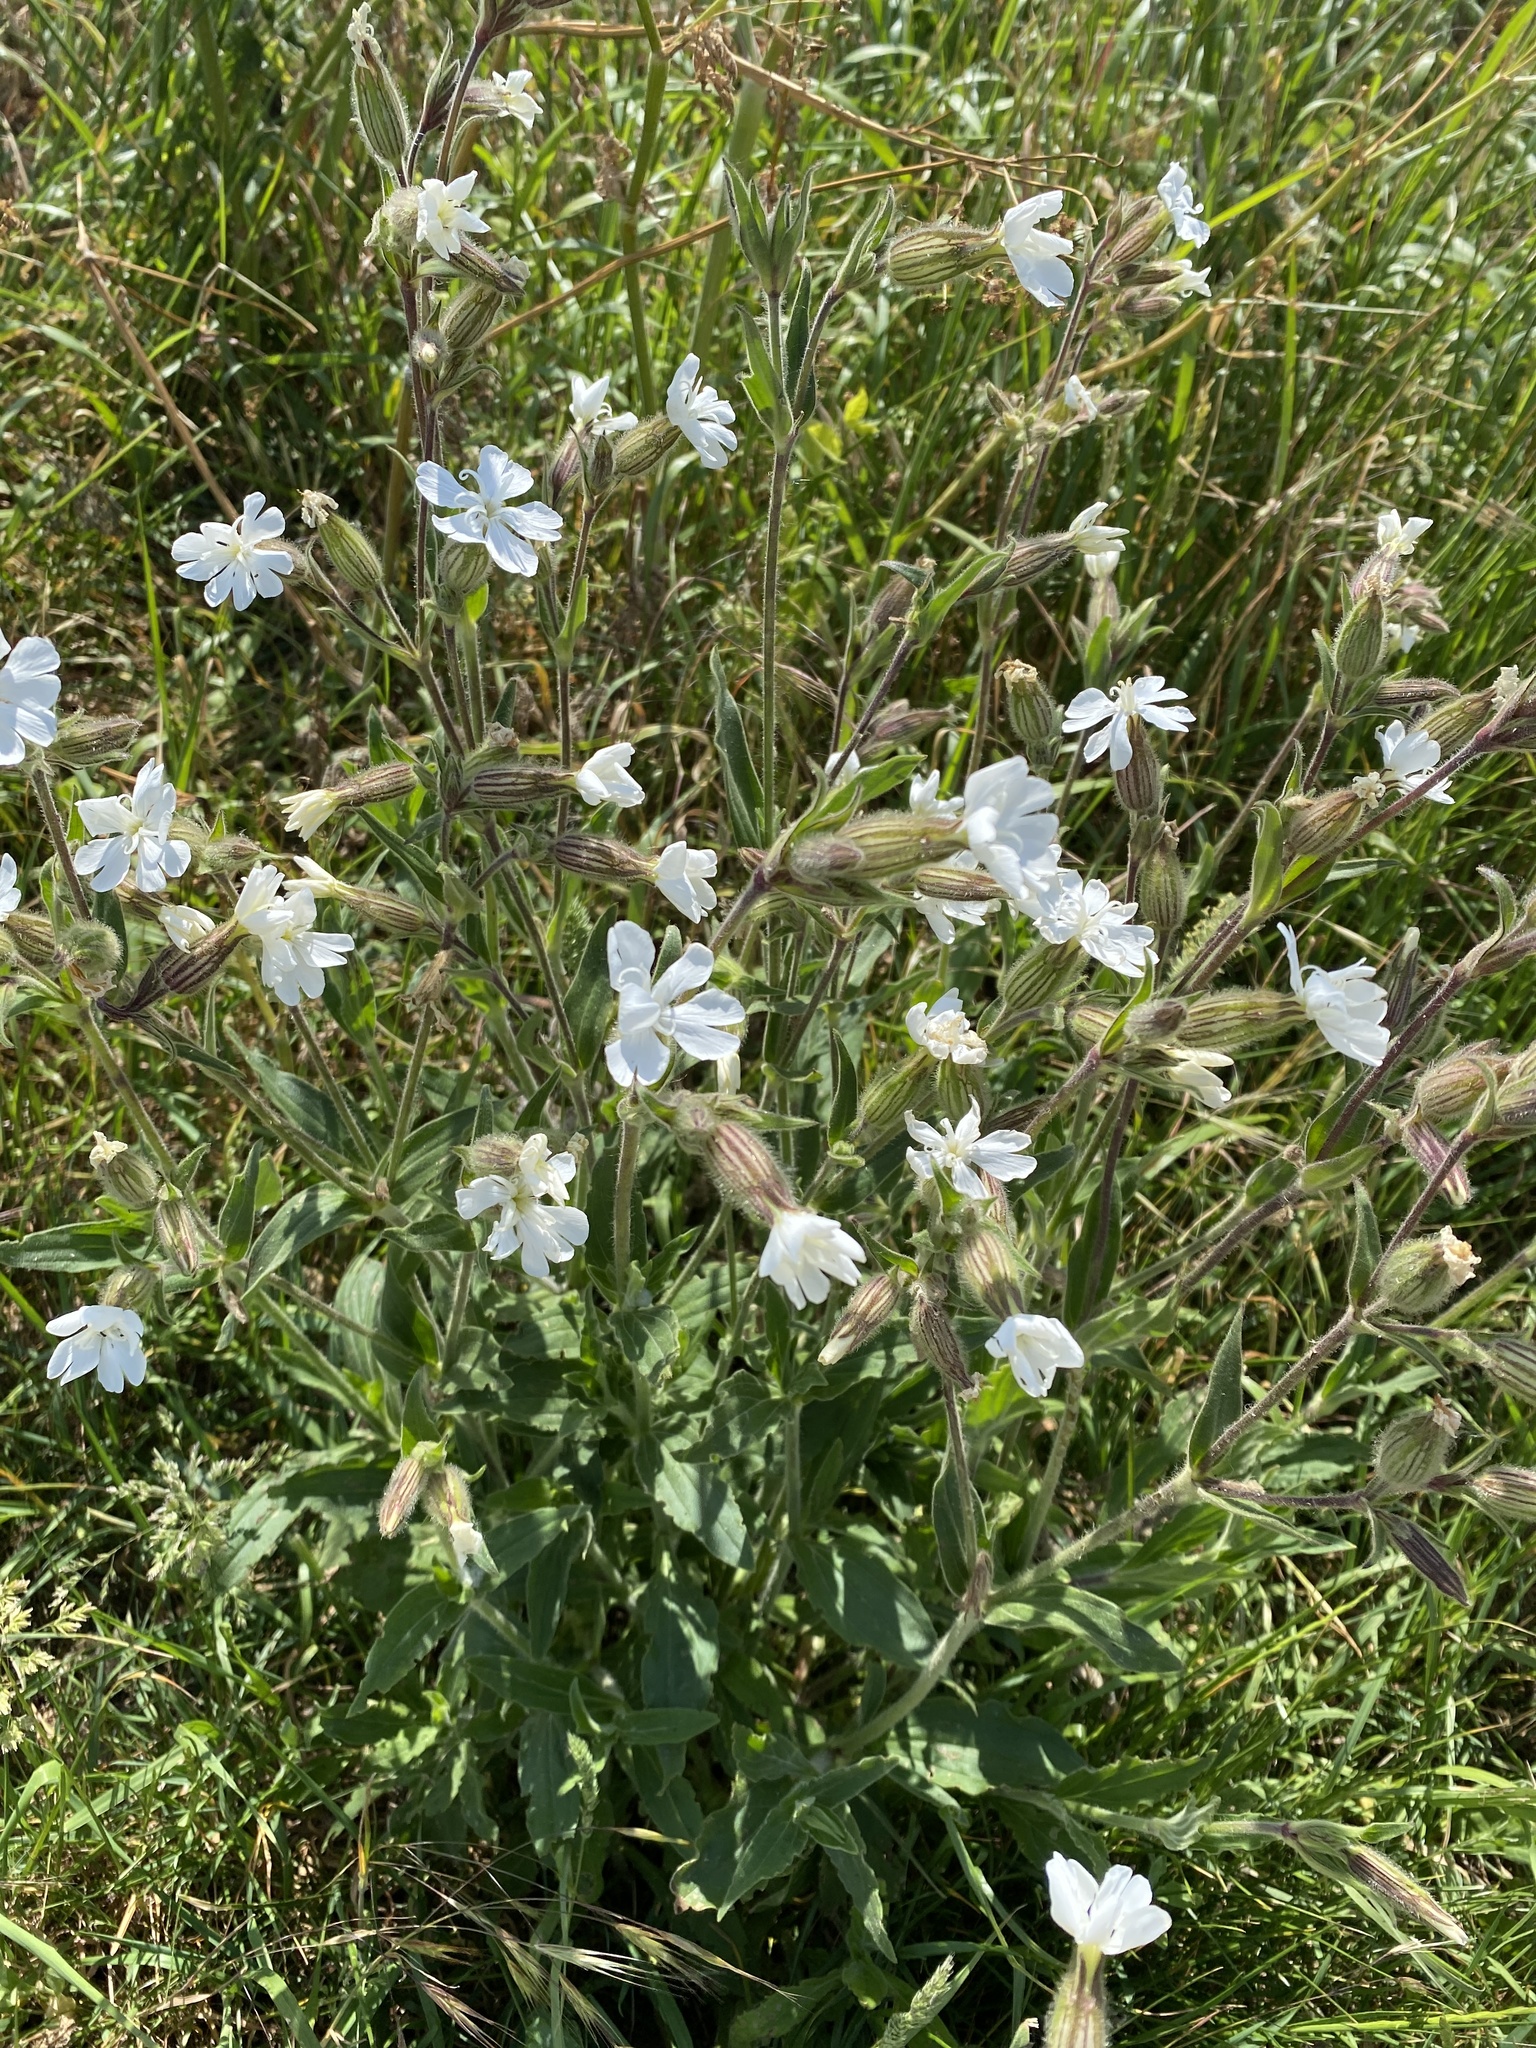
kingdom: Plantae
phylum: Tracheophyta
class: Magnoliopsida
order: Caryophyllales
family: Caryophyllaceae
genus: Silene
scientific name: Silene latifolia
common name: White campion
